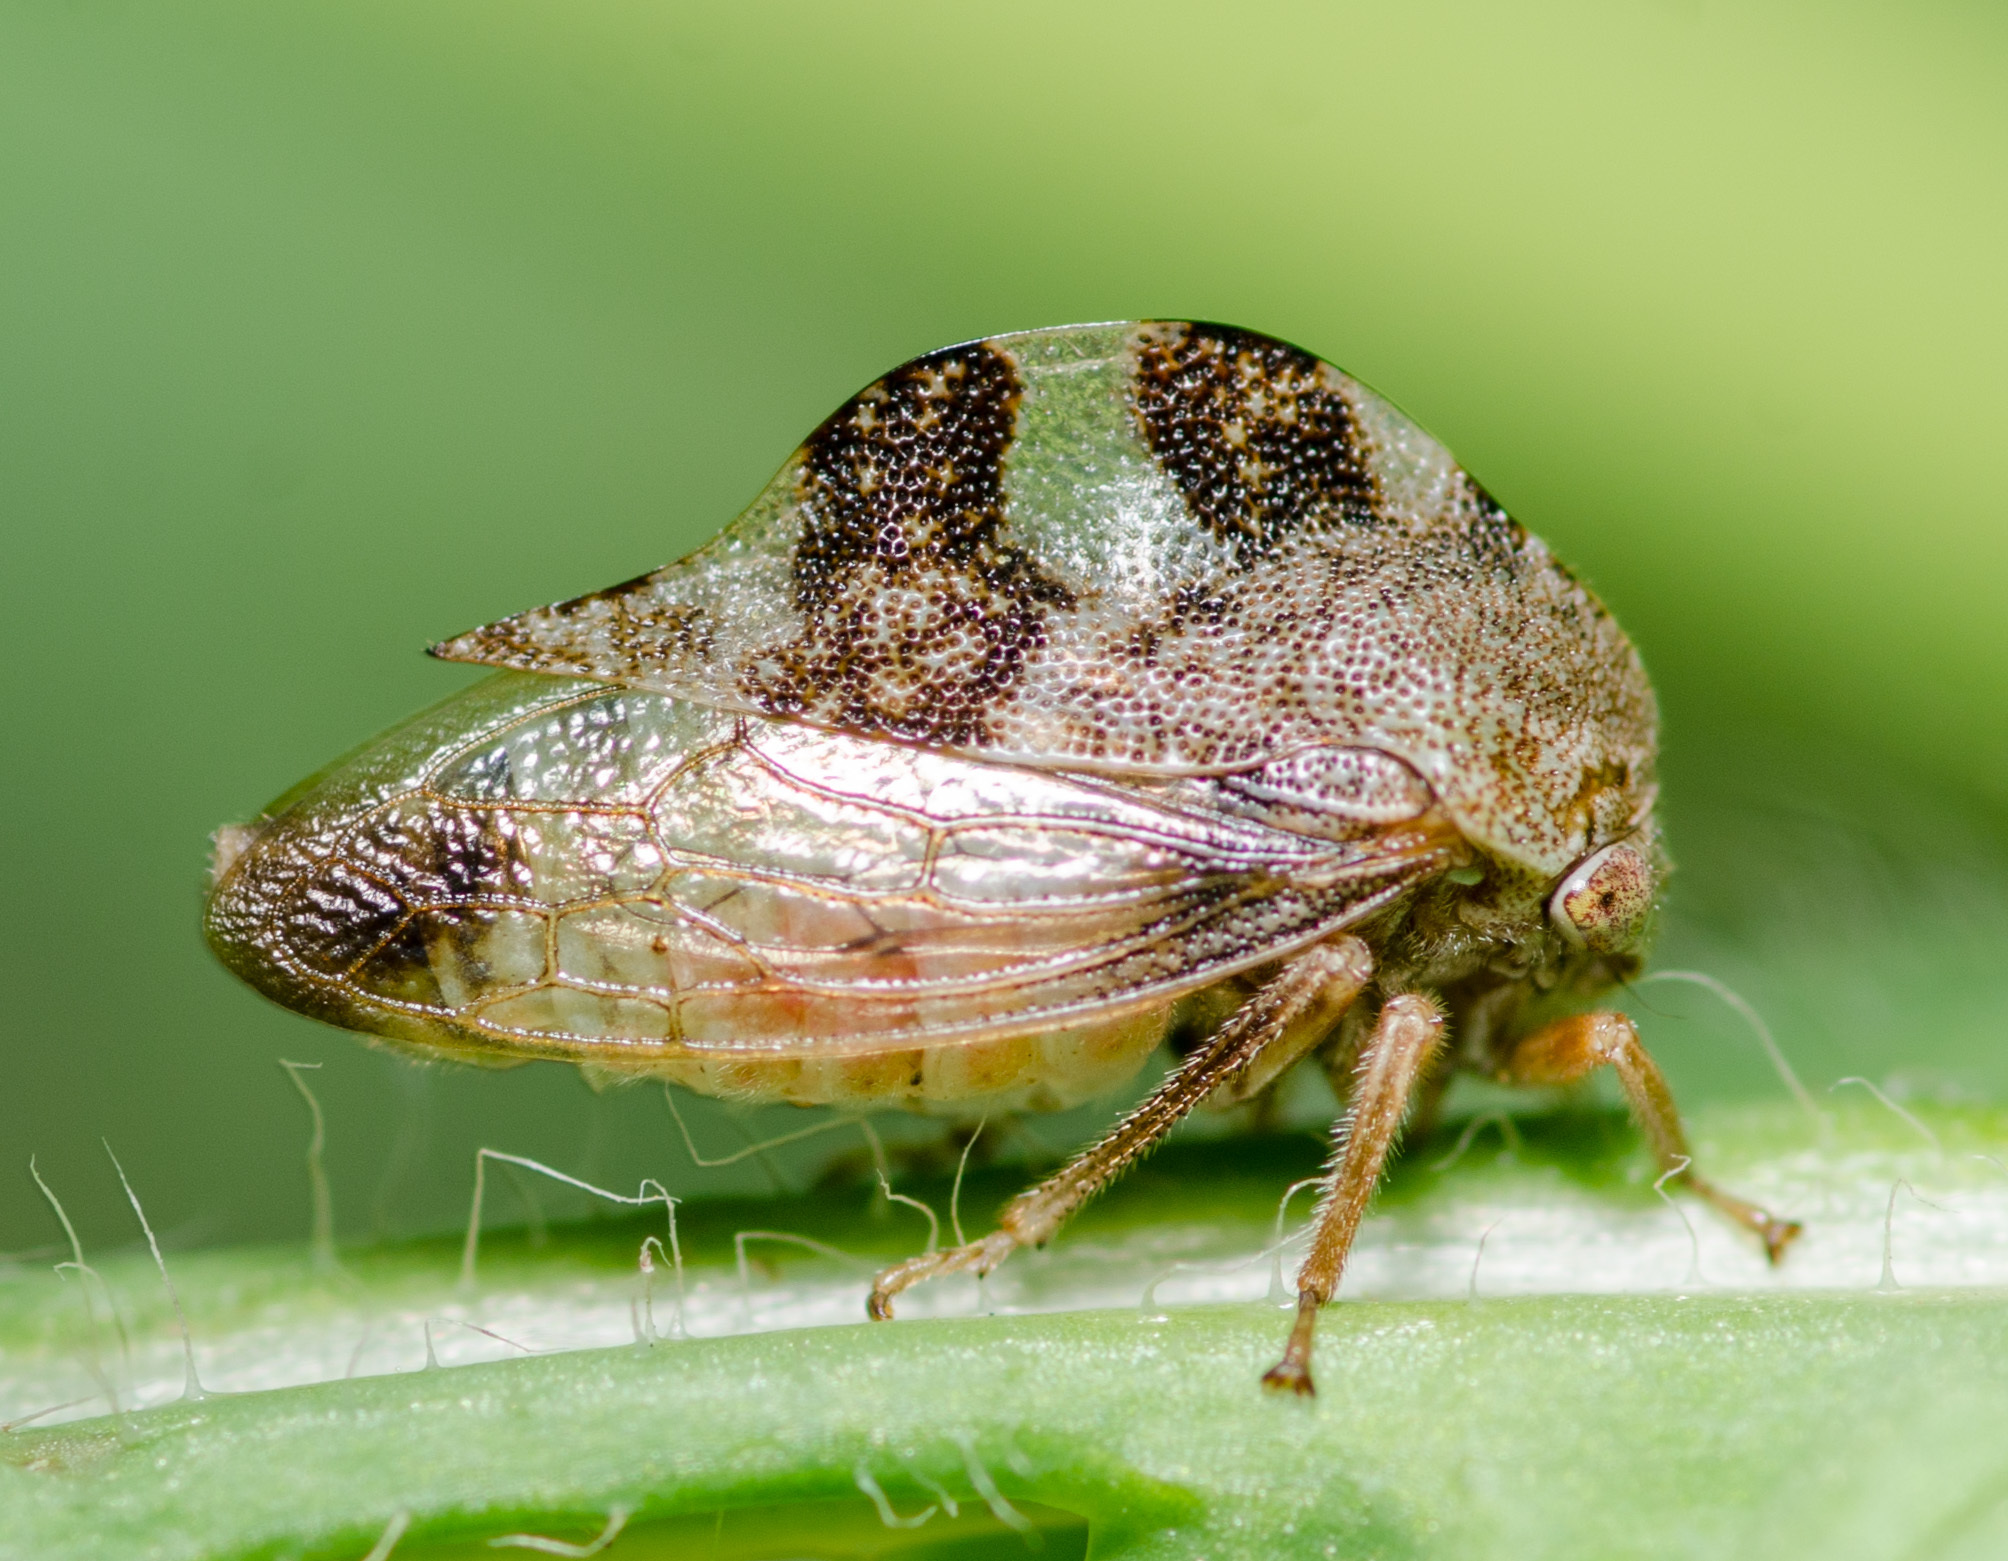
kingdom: Animalia
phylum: Arthropoda
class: Insecta
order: Hemiptera
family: Membracidae
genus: Cyrtolobus
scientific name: Cyrtolobus tuberosa
